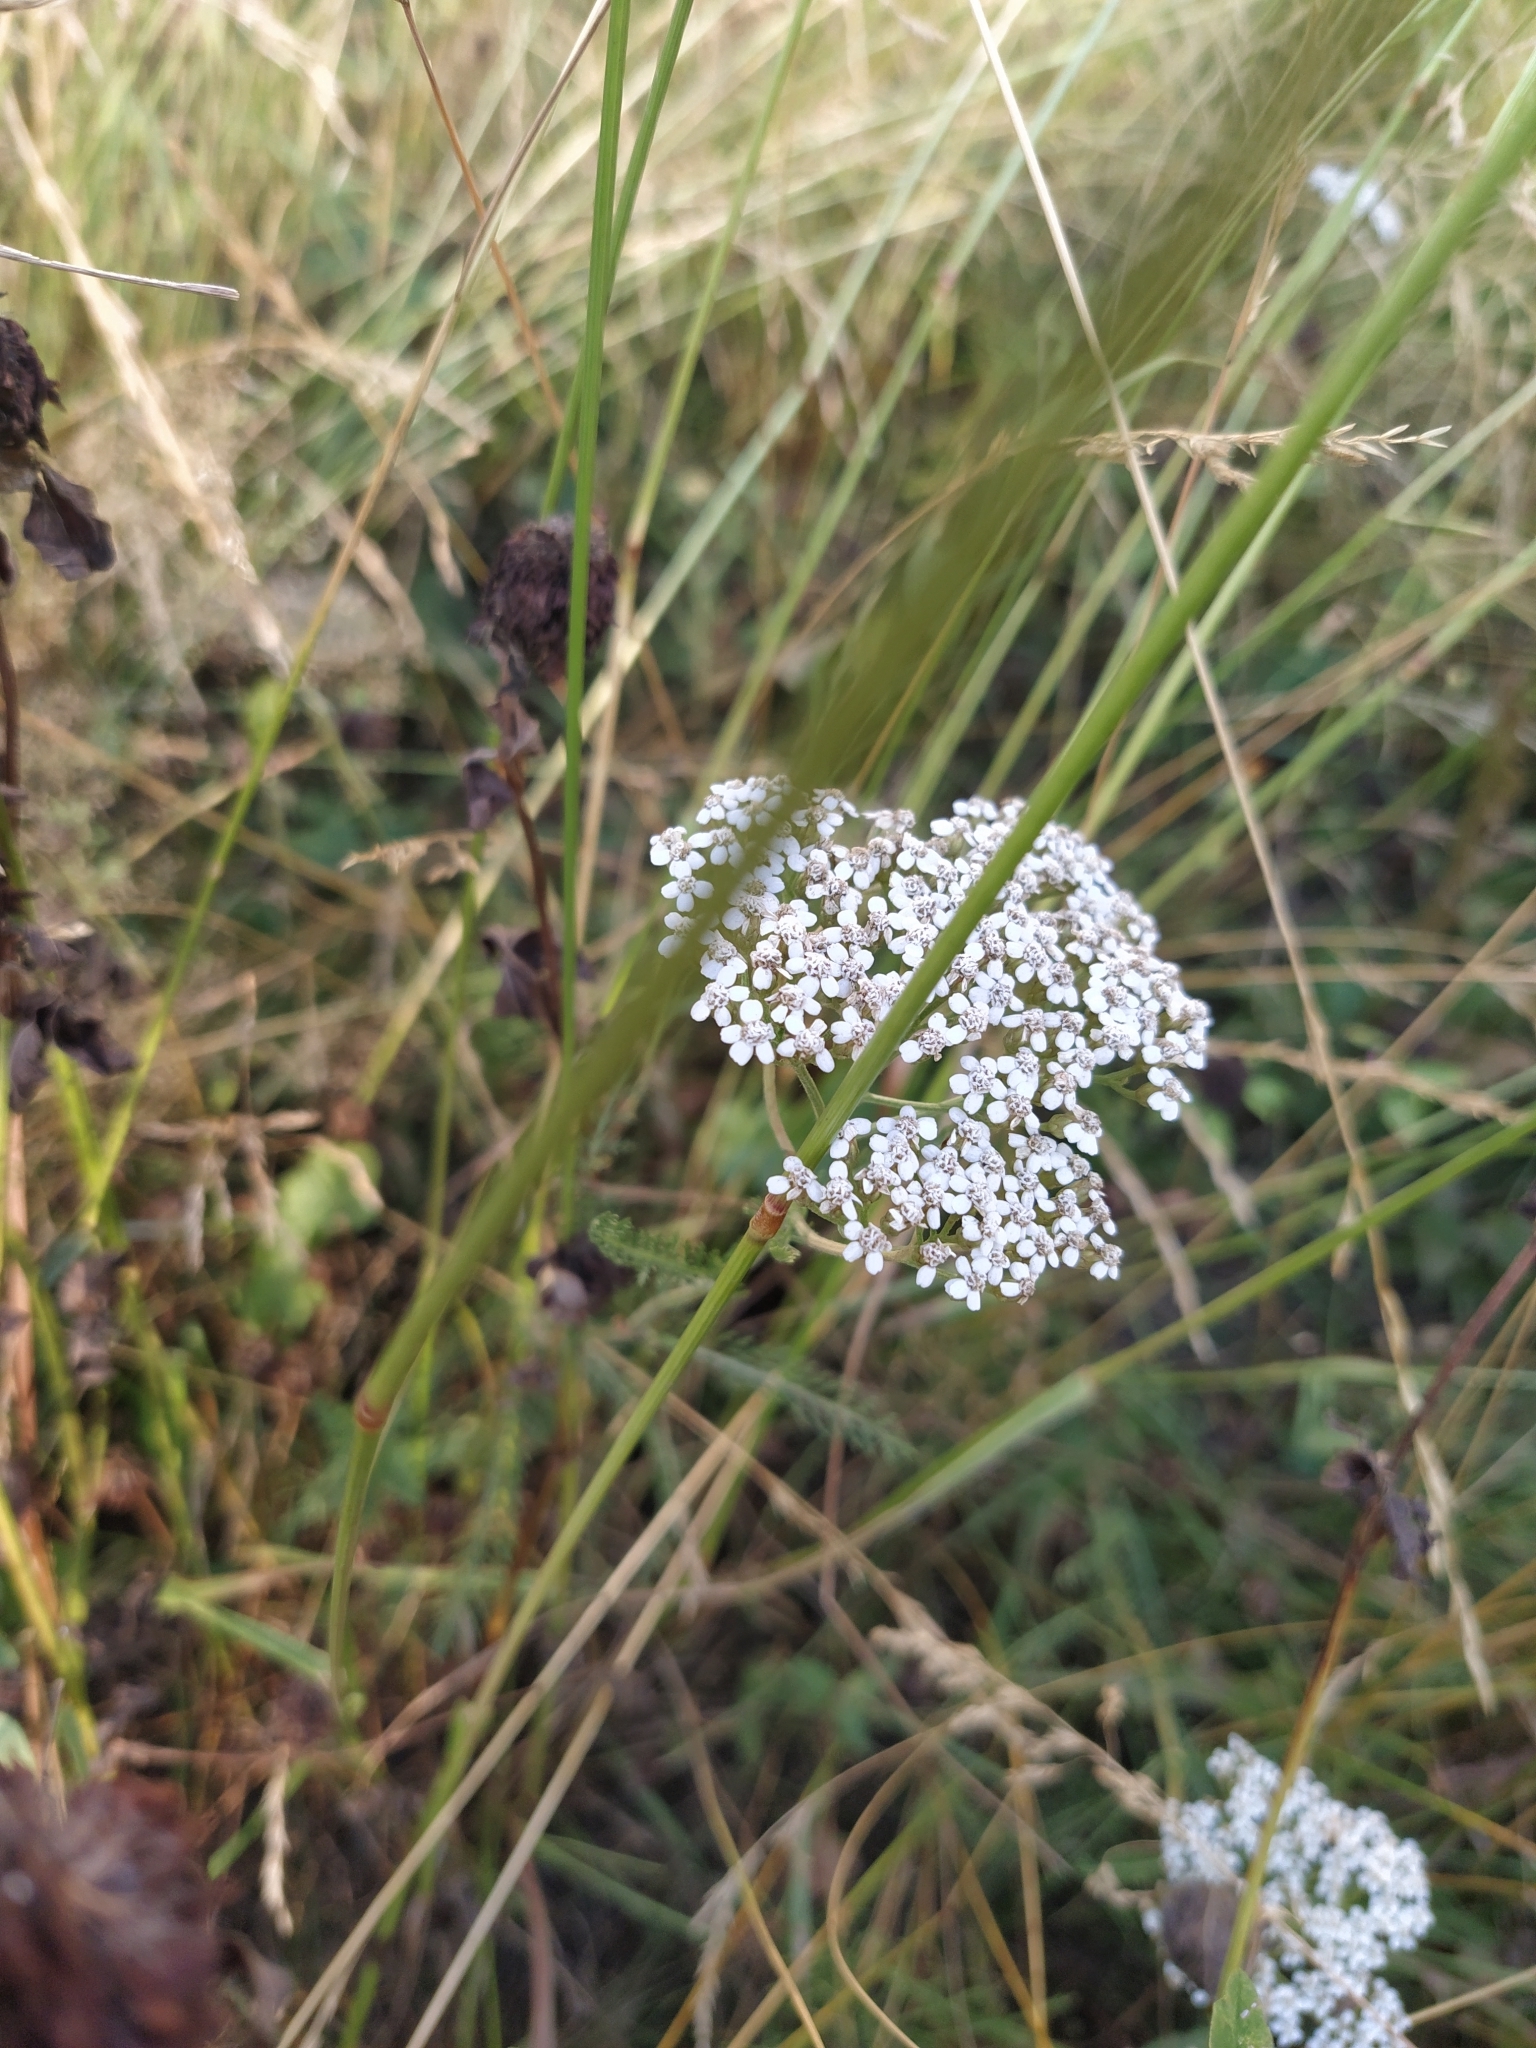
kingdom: Plantae
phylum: Tracheophyta
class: Magnoliopsida
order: Asterales
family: Asteraceae
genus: Achillea
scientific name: Achillea millefolium
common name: Yarrow
